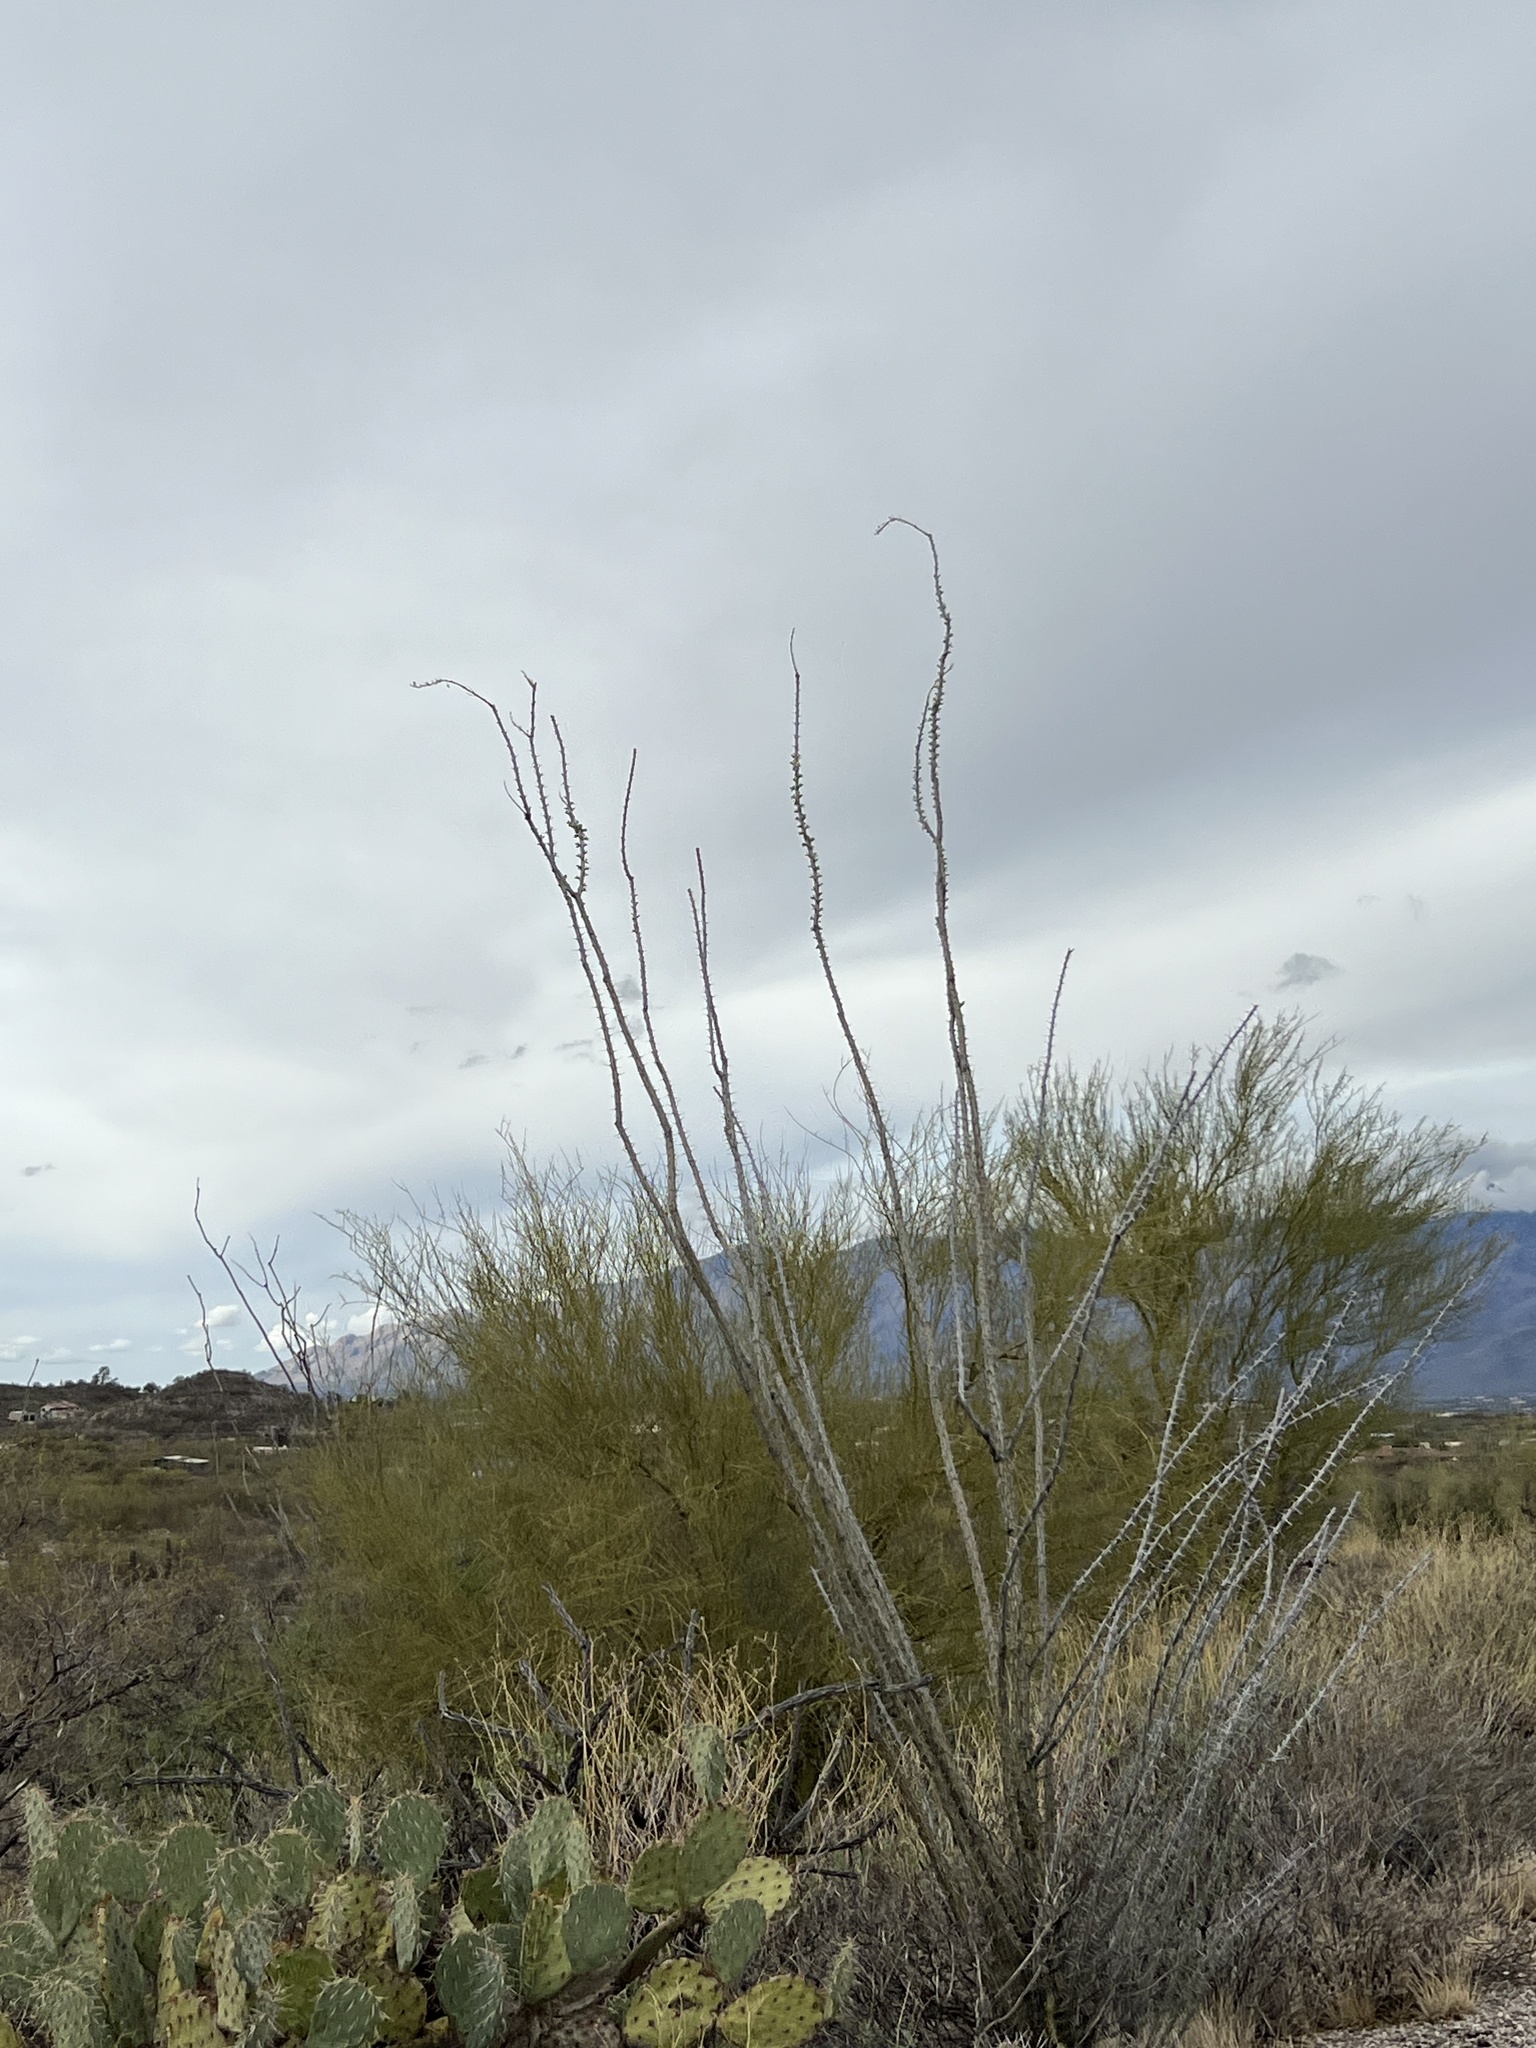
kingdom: Plantae
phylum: Tracheophyta
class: Magnoliopsida
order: Ericales
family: Fouquieriaceae
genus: Fouquieria
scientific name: Fouquieria splendens
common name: Vine-cactus
